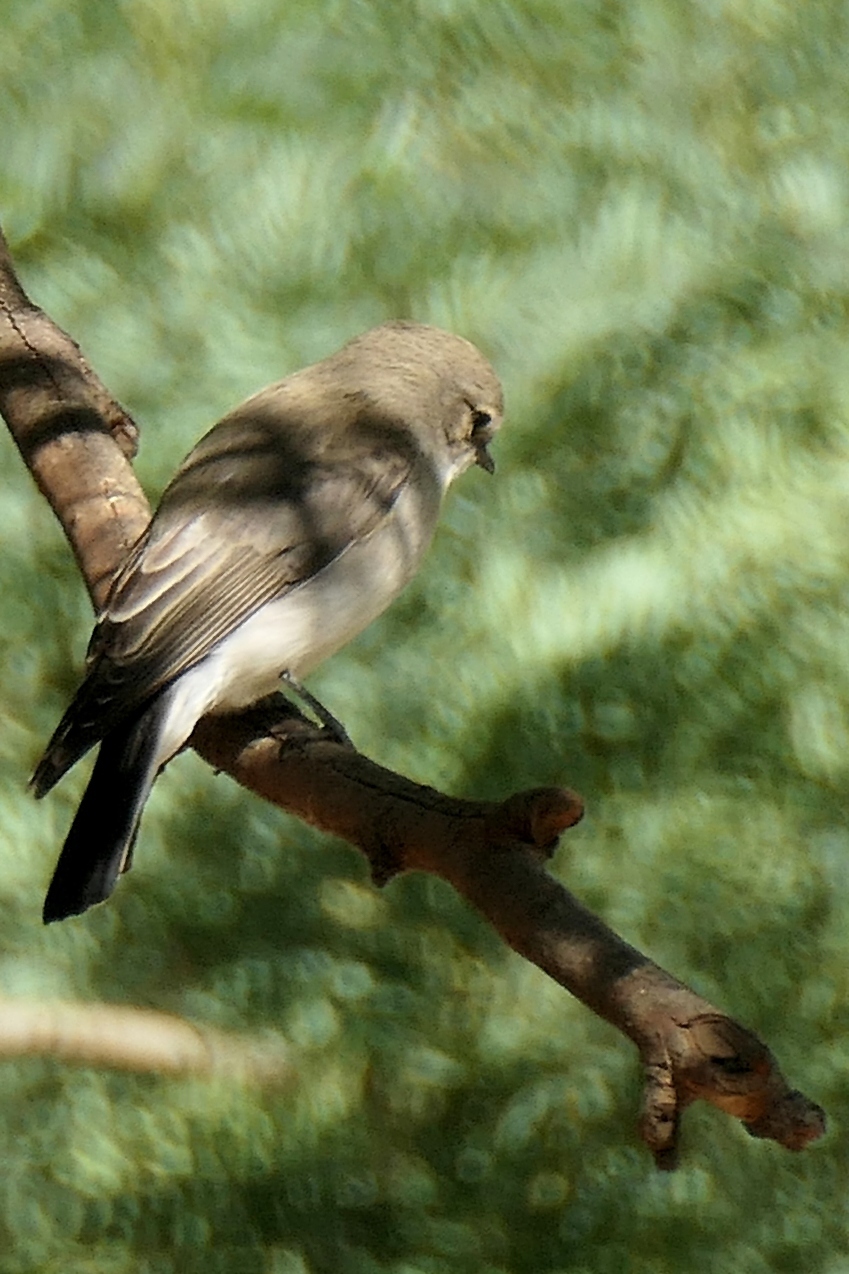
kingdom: Animalia
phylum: Chordata
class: Aves
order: Passeriformes
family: Petroicidae
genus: Microeca
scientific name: Microeca fascinans
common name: Jacky winter
